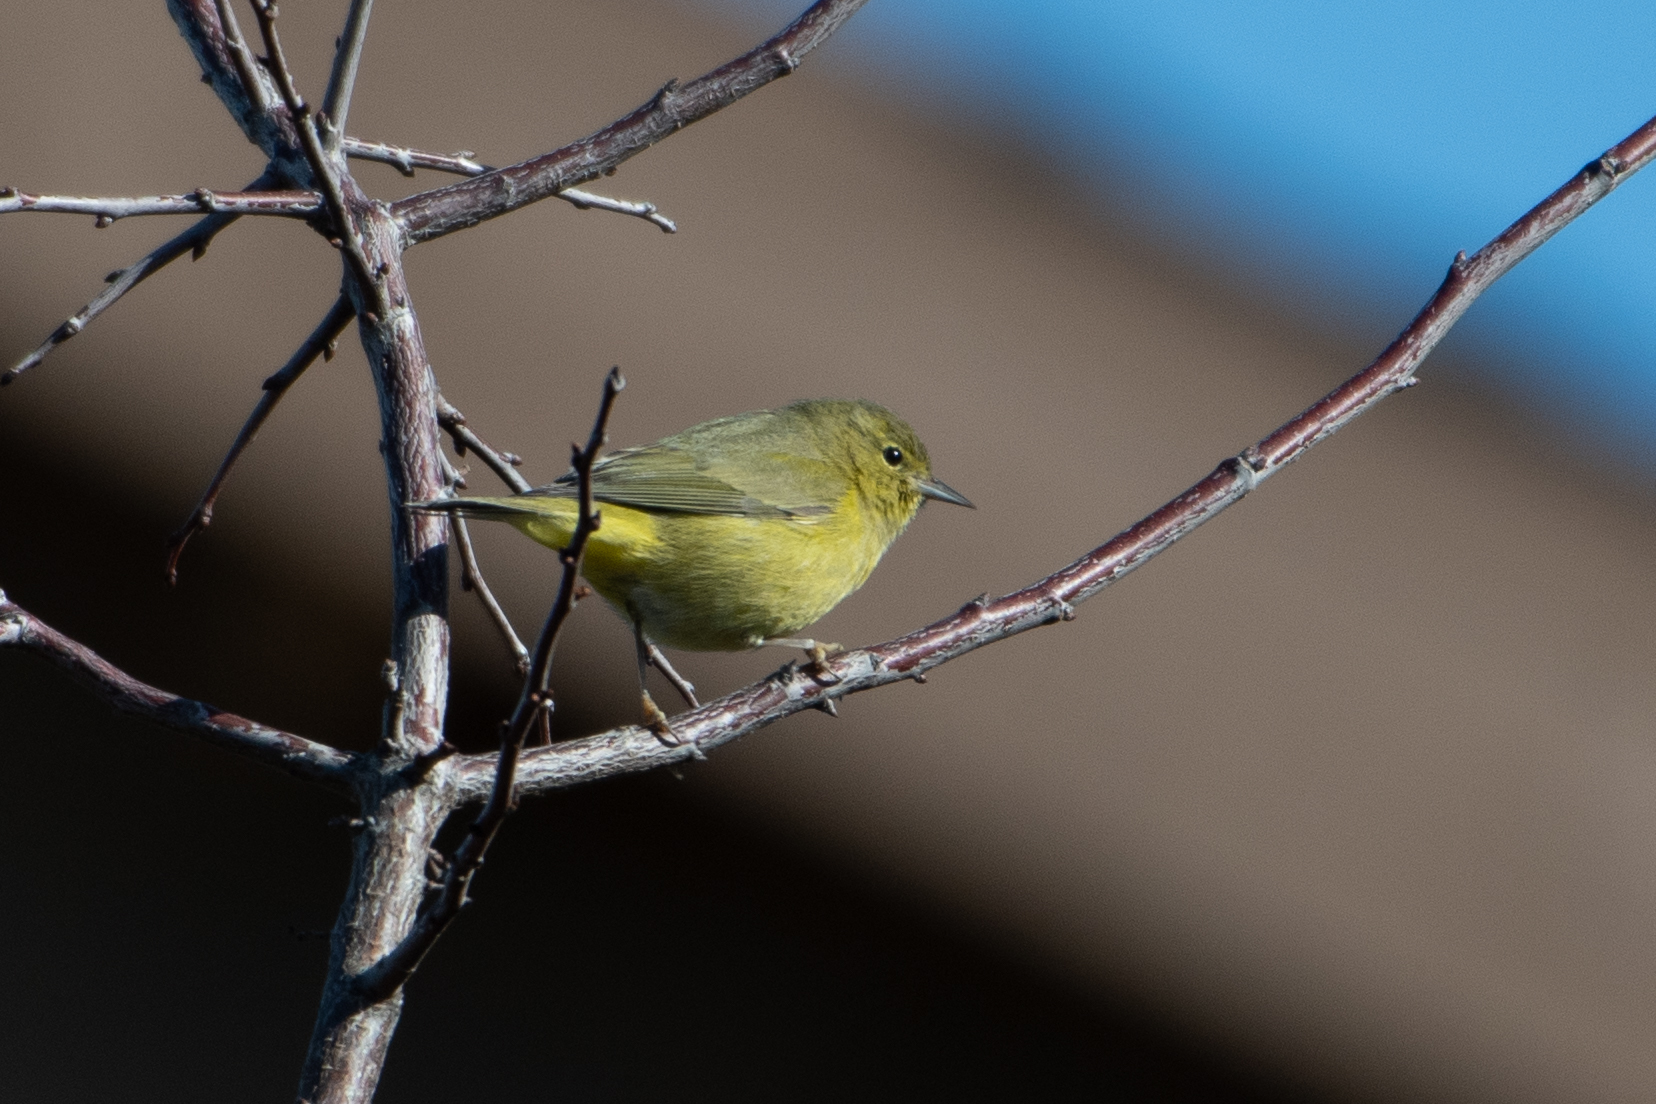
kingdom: Animalia
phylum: Chordata
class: Aves
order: Passeriformes
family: Parulidae
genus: Leiothlypis
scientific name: Leiothlypis celata
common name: Orange-crowned warbler
